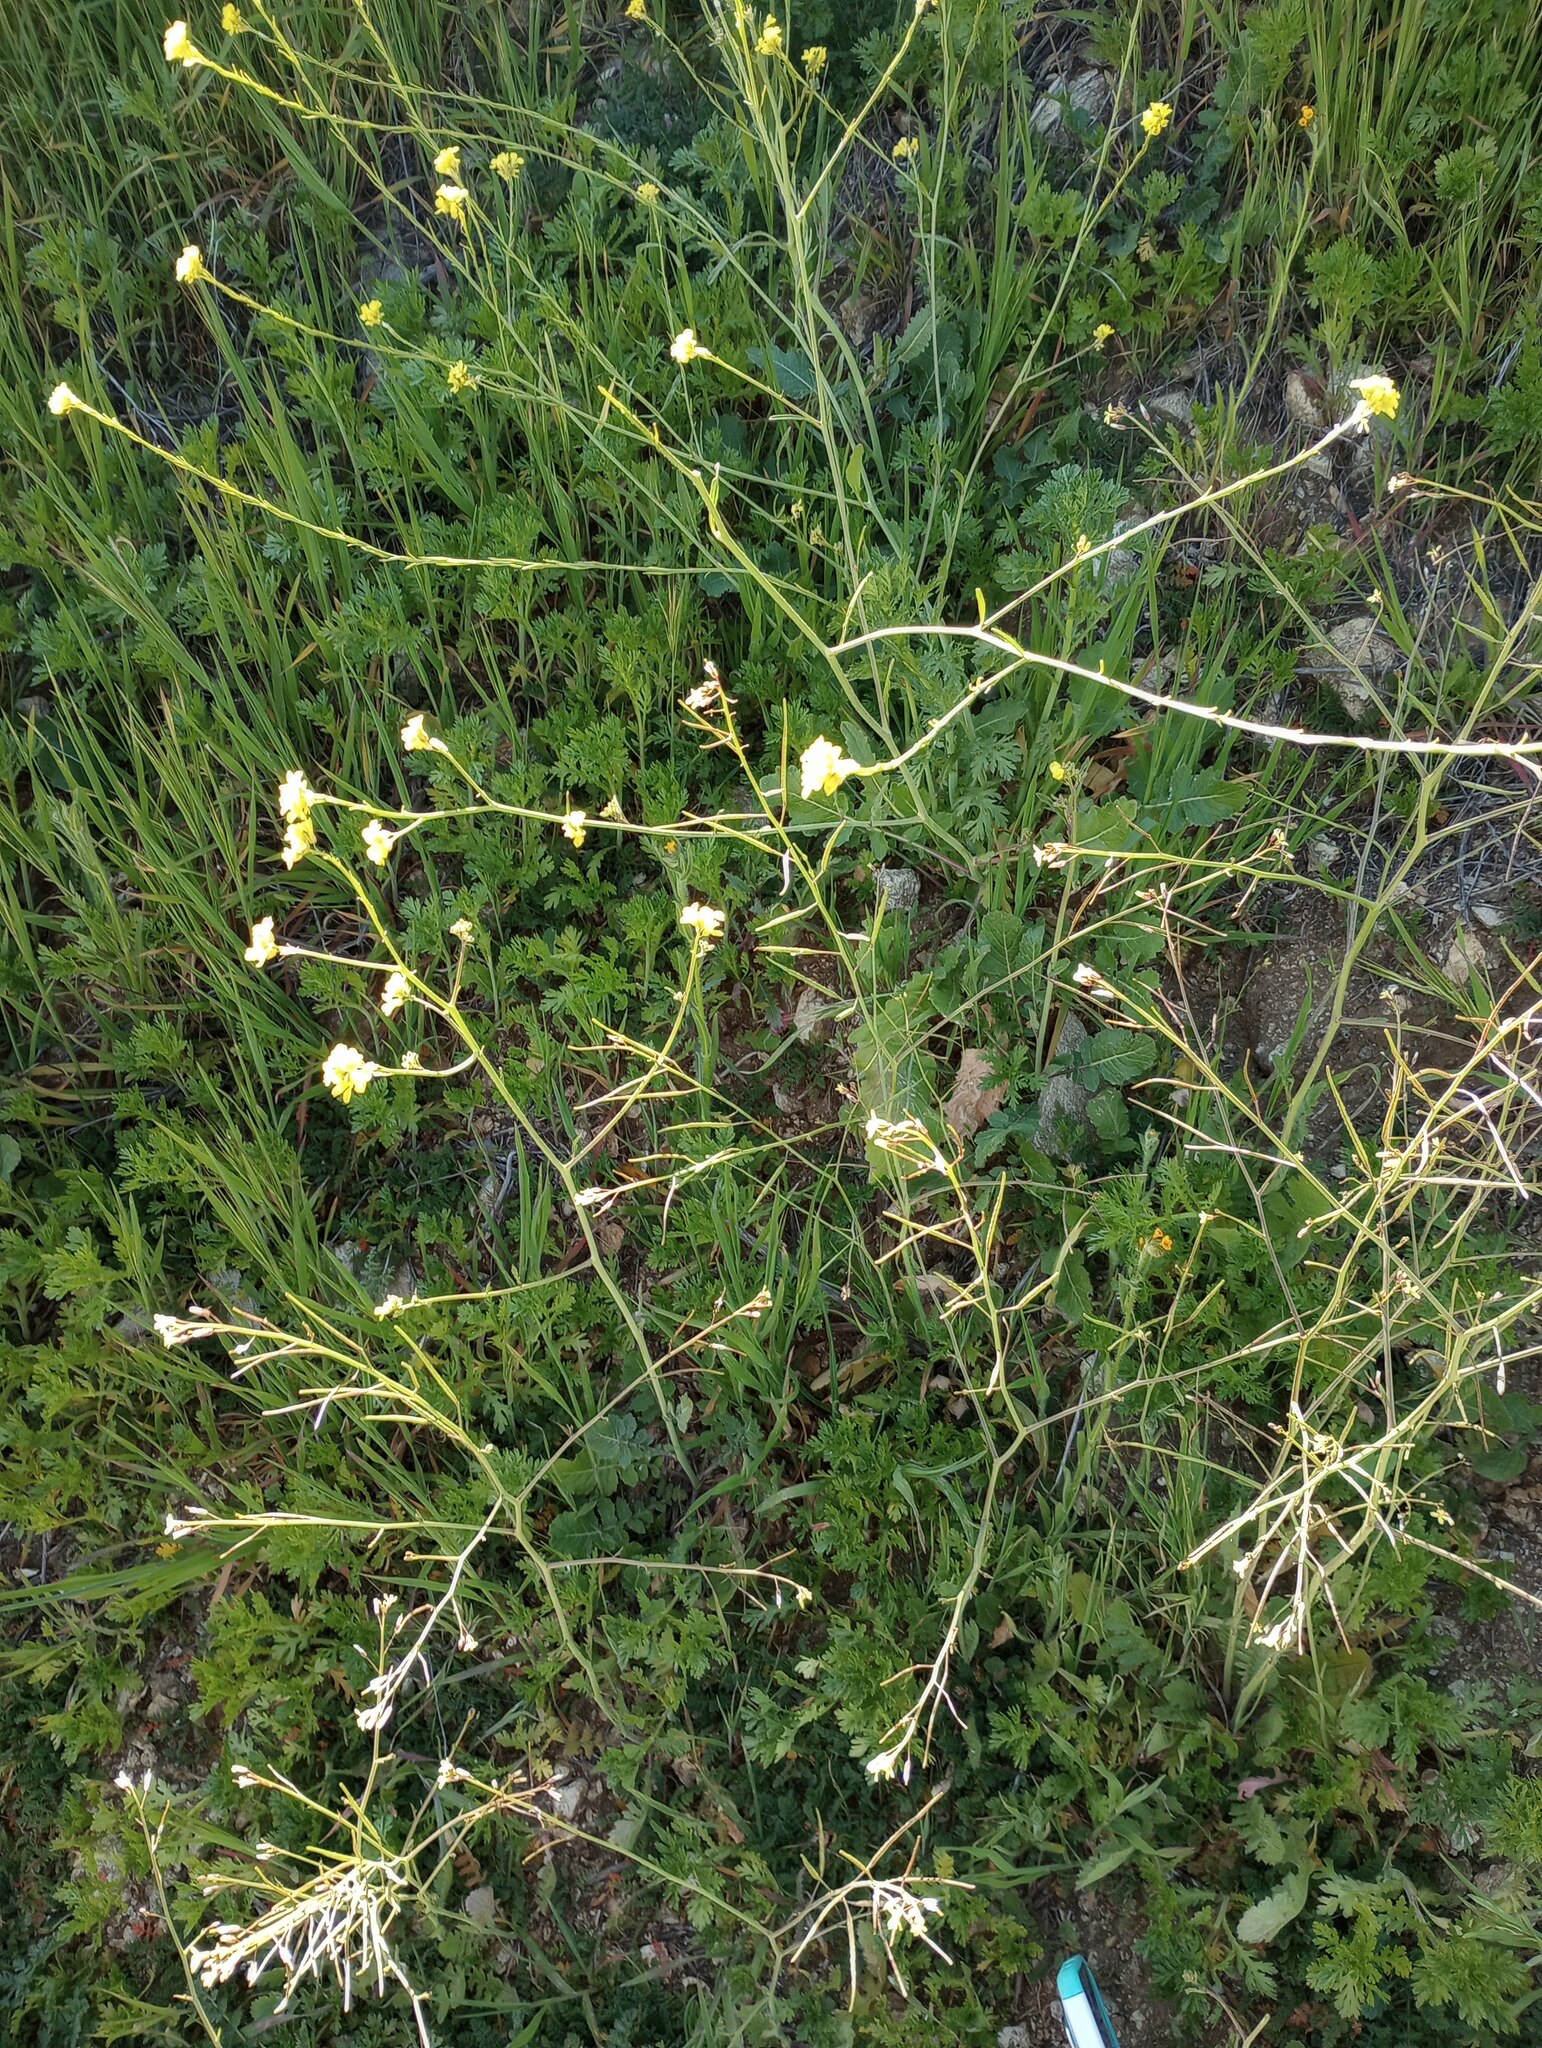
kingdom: Plantae
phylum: Tracheophyta
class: Magnoliopsida
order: Brassicales
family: Brassicaceae
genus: Hirschfeldia
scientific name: Hirschfeldia incana
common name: Hoary mustard
